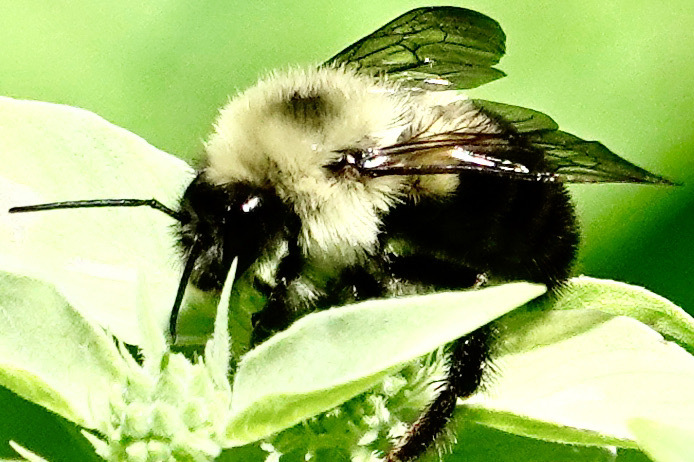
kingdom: Animalia
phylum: Arthropoda
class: Insecta
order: Hymenoptera
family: Apidae
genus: Bombus
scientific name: Bombus bimaculatus
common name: Two-spotted bumble bee
